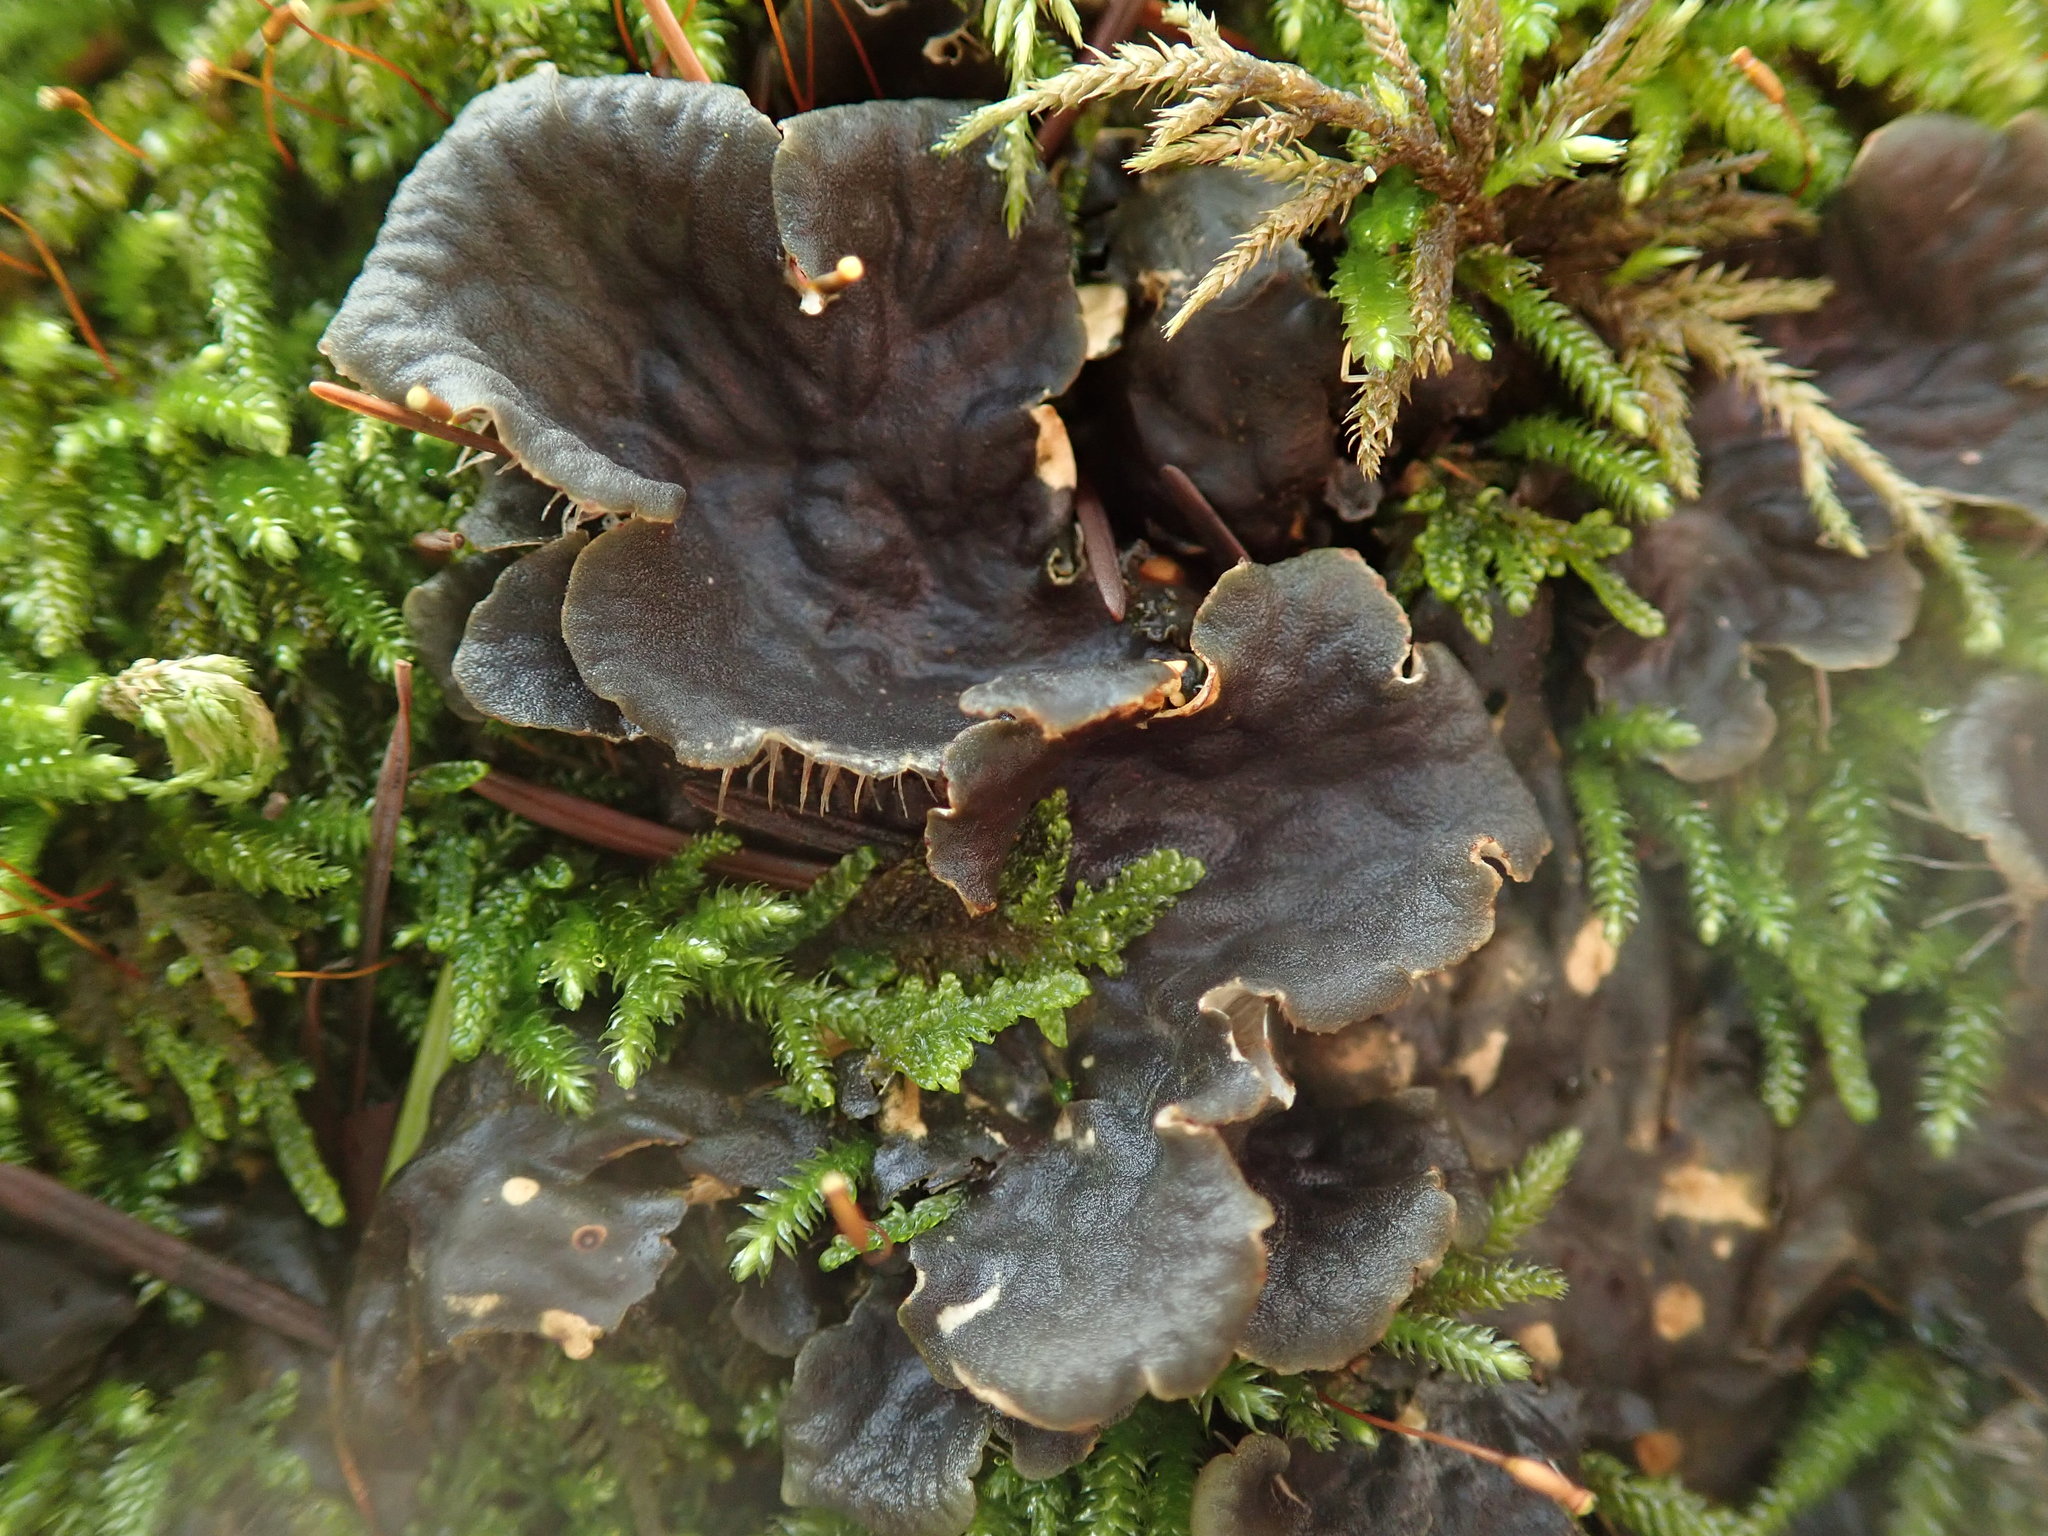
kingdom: Fungi
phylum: Ascomycota
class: Lecanoromycetes
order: Peltigerales
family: Peltigeraceae
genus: Peltigera
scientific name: Peltigera neopolydactyla
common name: Carpet pelt
